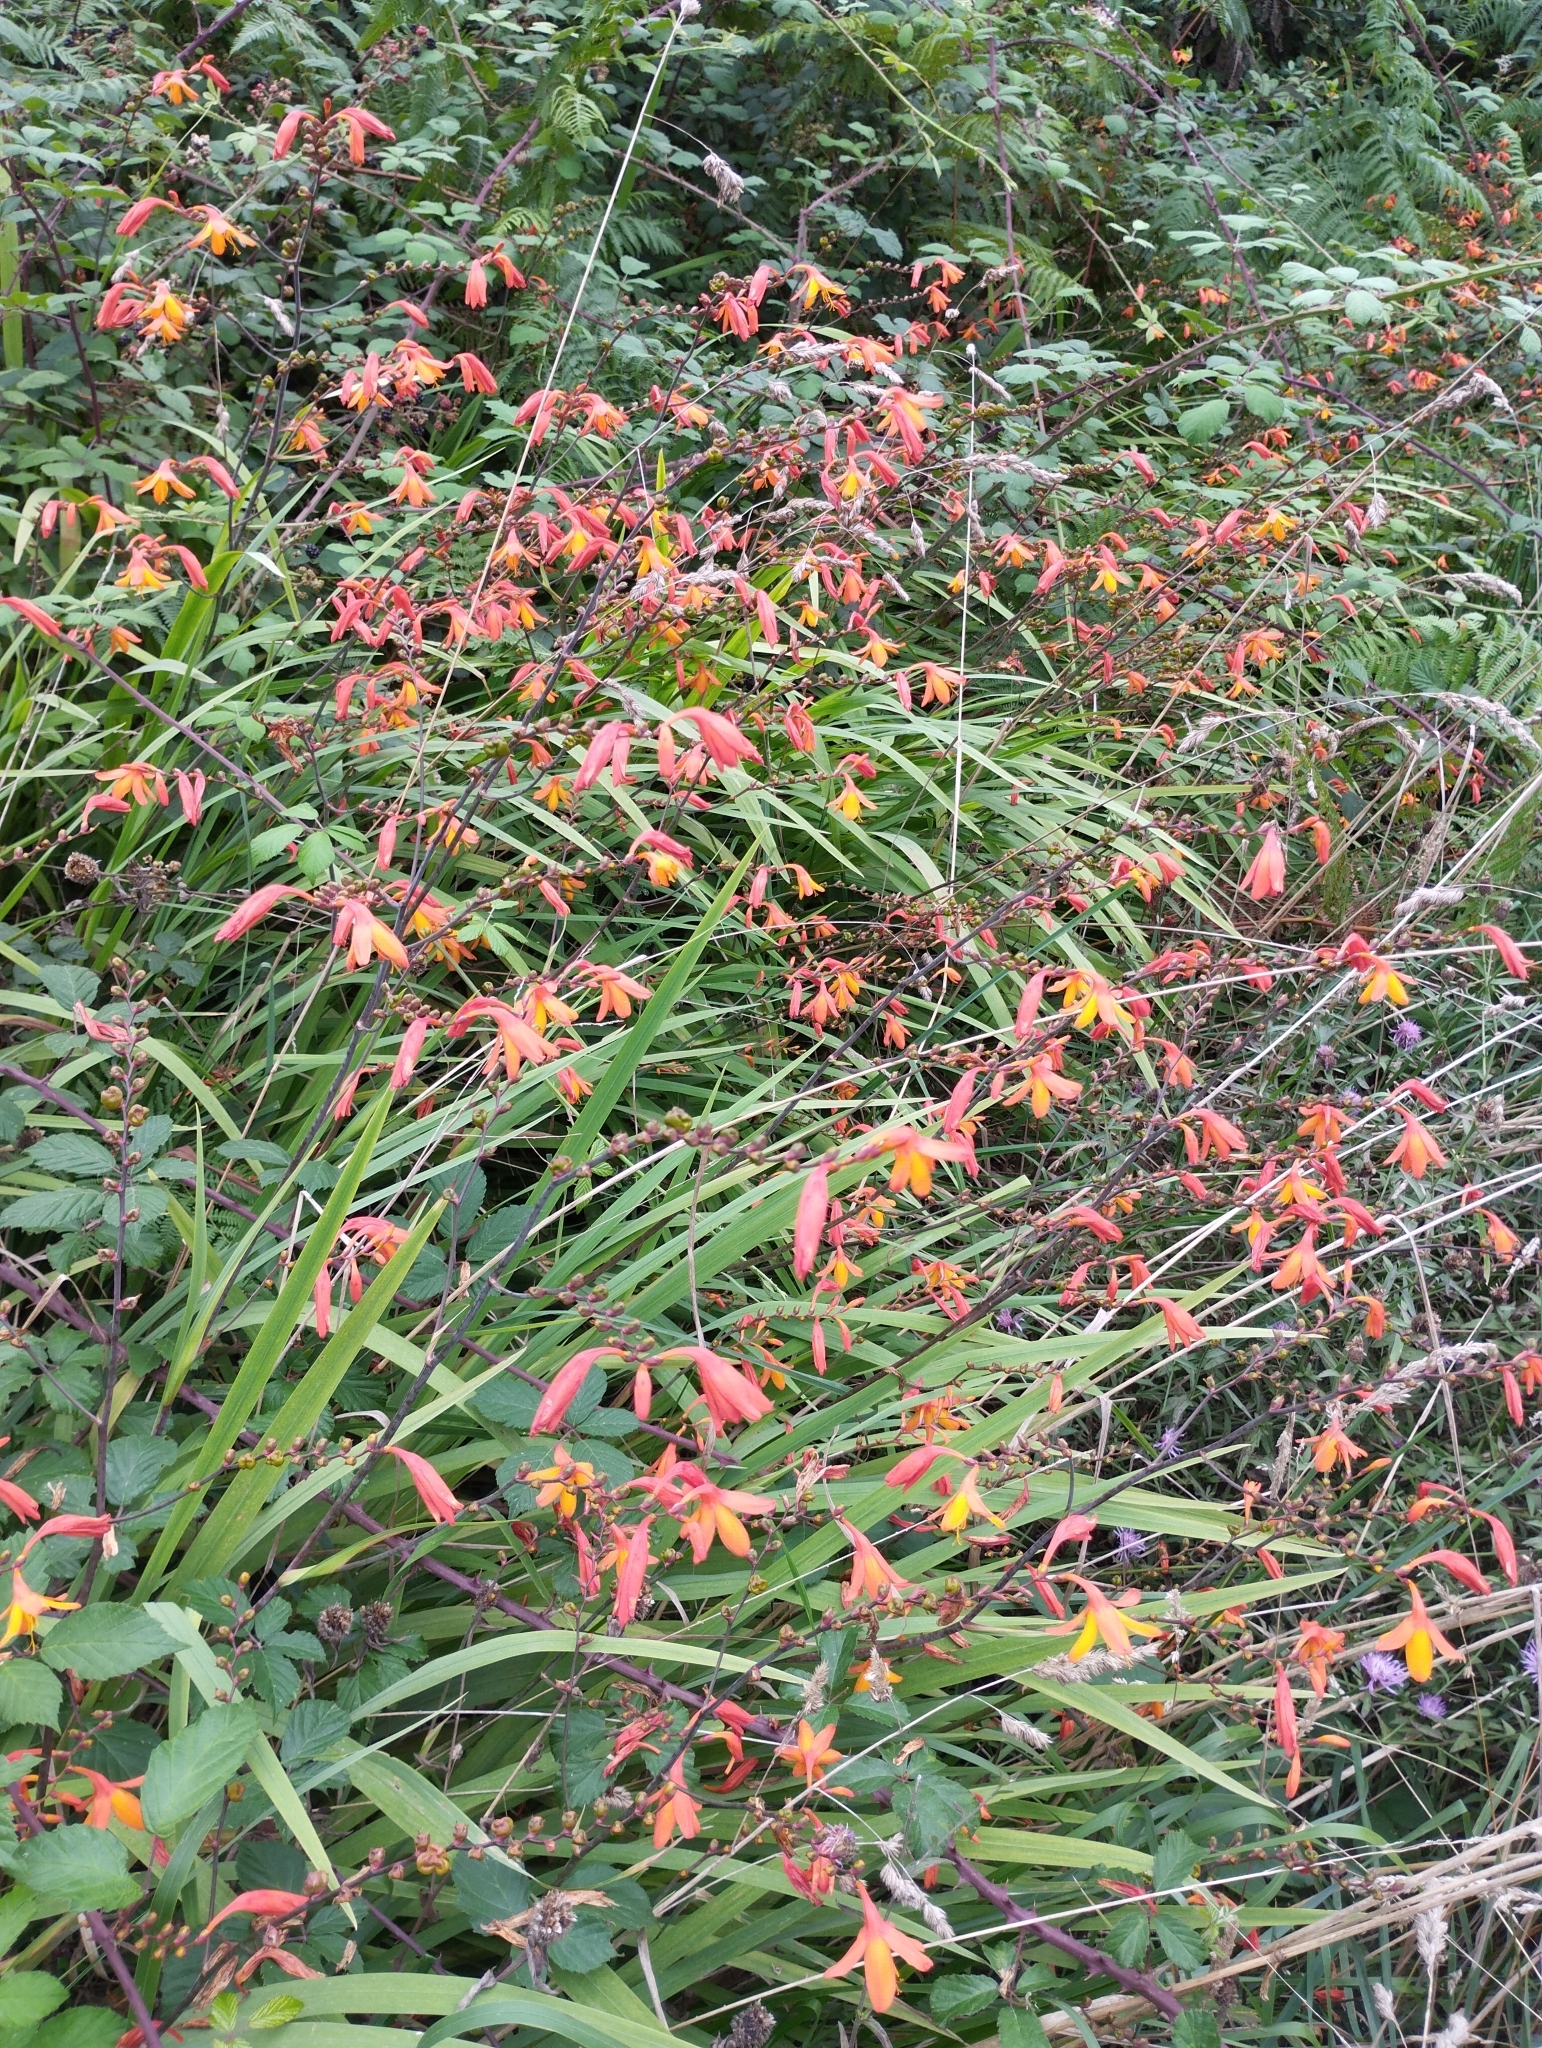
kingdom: Plantae
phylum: Tracheophyta
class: Liliopsida
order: Asparagales
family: Iridaceae
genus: Crocosmia
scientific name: Crocosmia crocosmiiflora
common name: Montbretia
